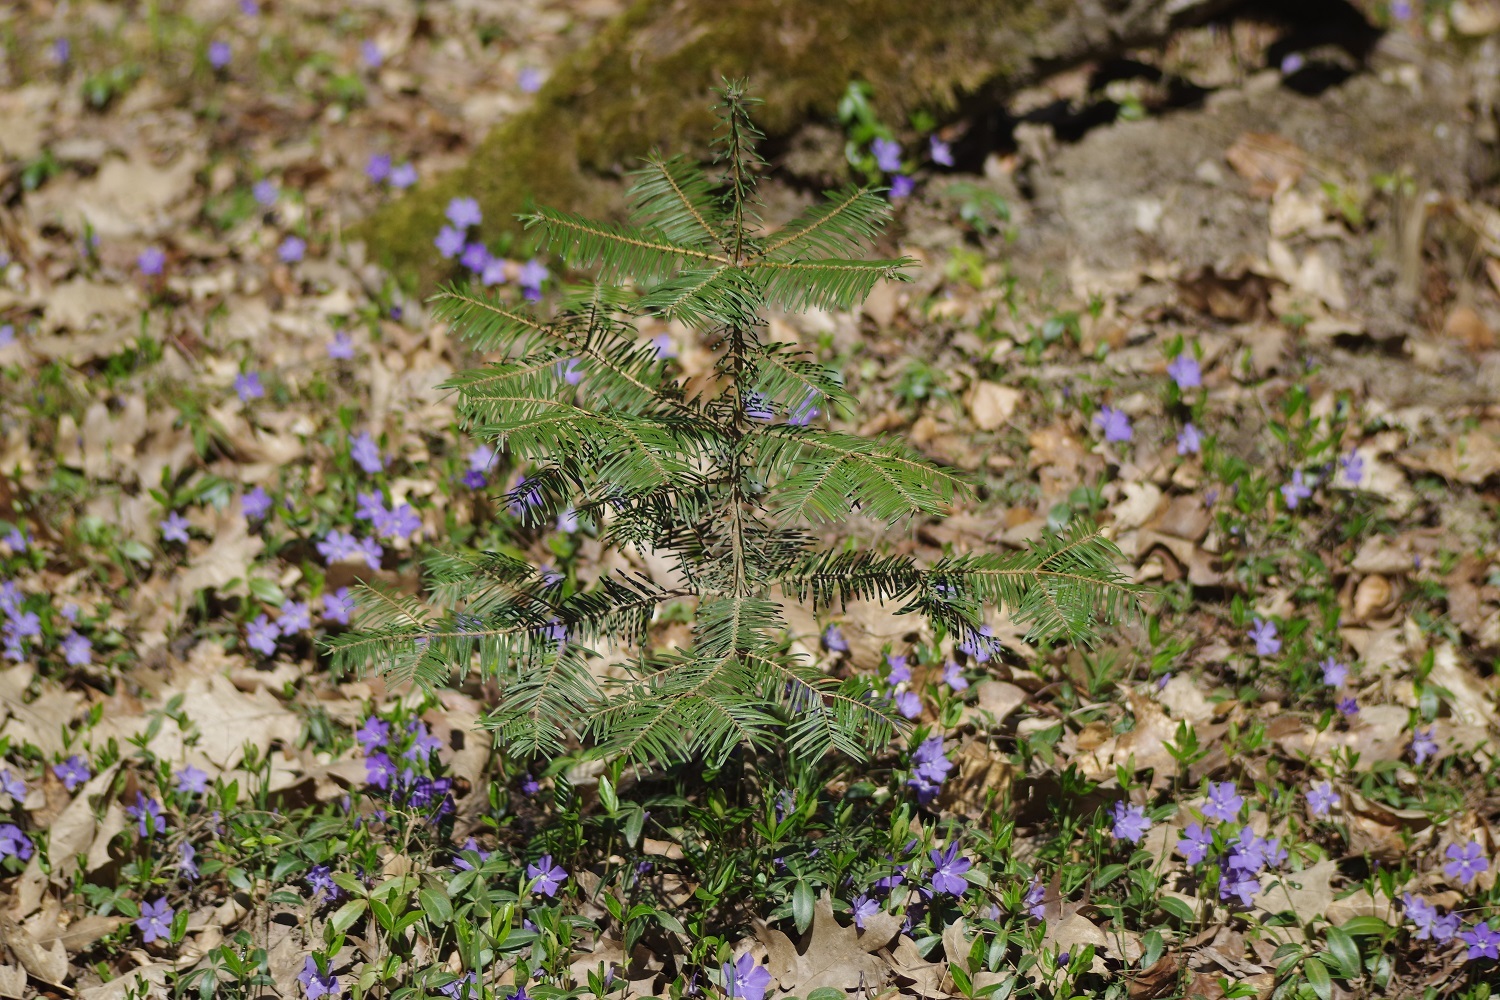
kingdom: Plantae
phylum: Tracheophyta
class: Pinopsida
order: Pinales
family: Pinaceae
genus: Abies
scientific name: Abies alba
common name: Silver fir
